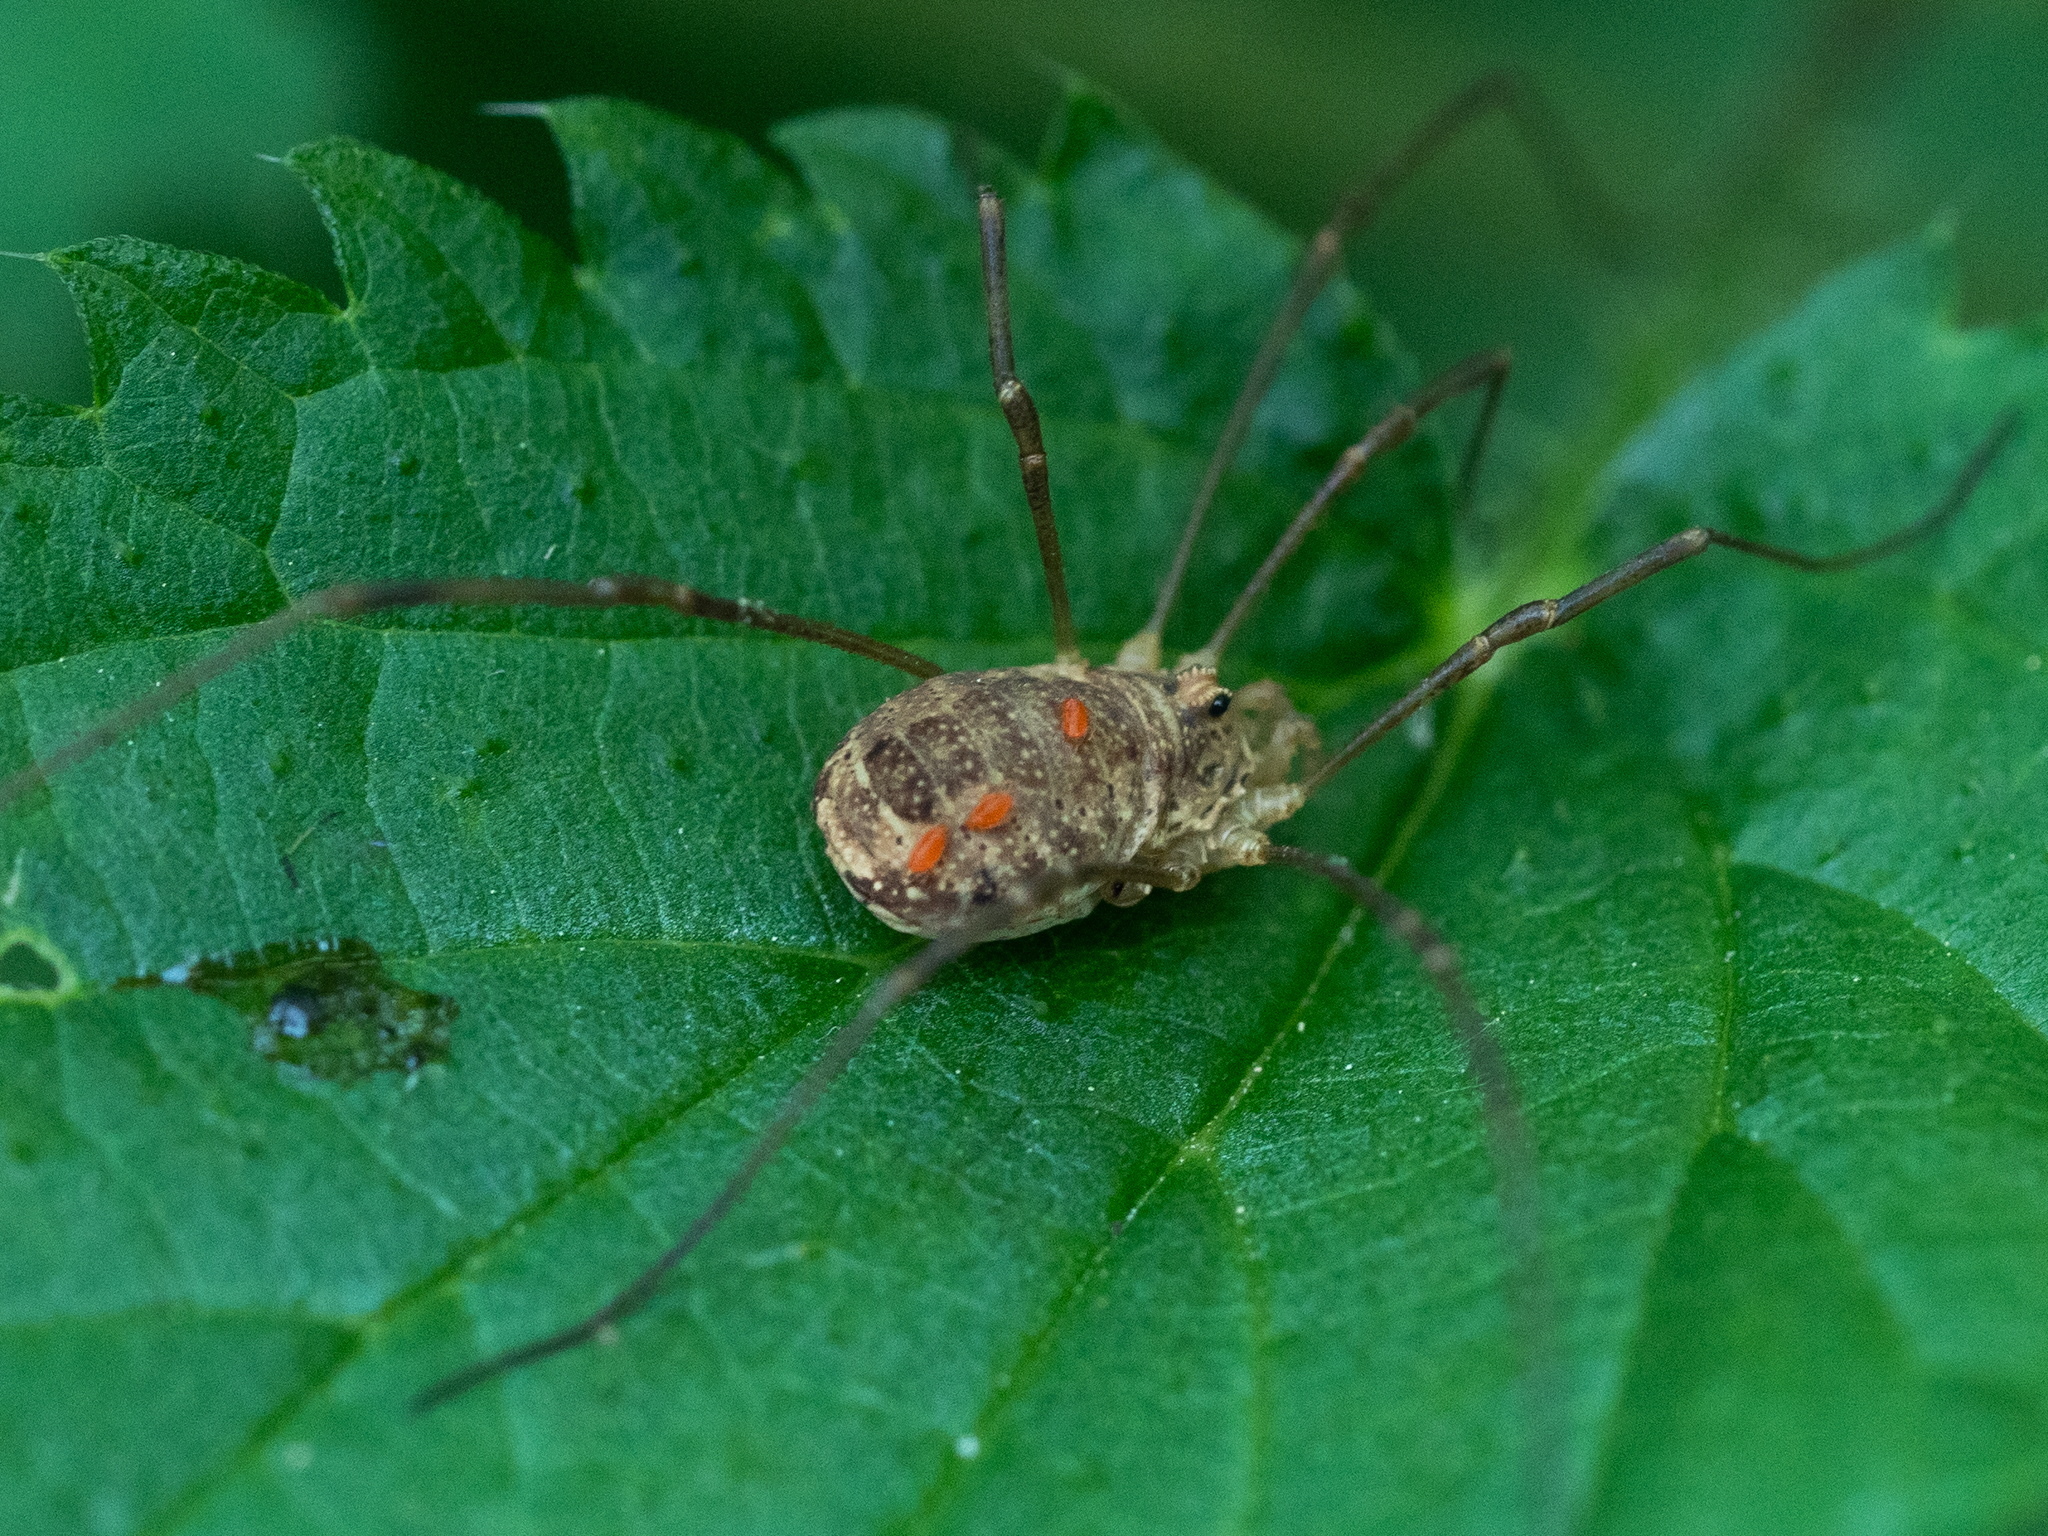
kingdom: Animalia
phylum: Arthropoda
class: Arachnida
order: Opiliones
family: Phalangiidae
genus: Rilaena
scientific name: Rilaena triangularis
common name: Spring harvestman
